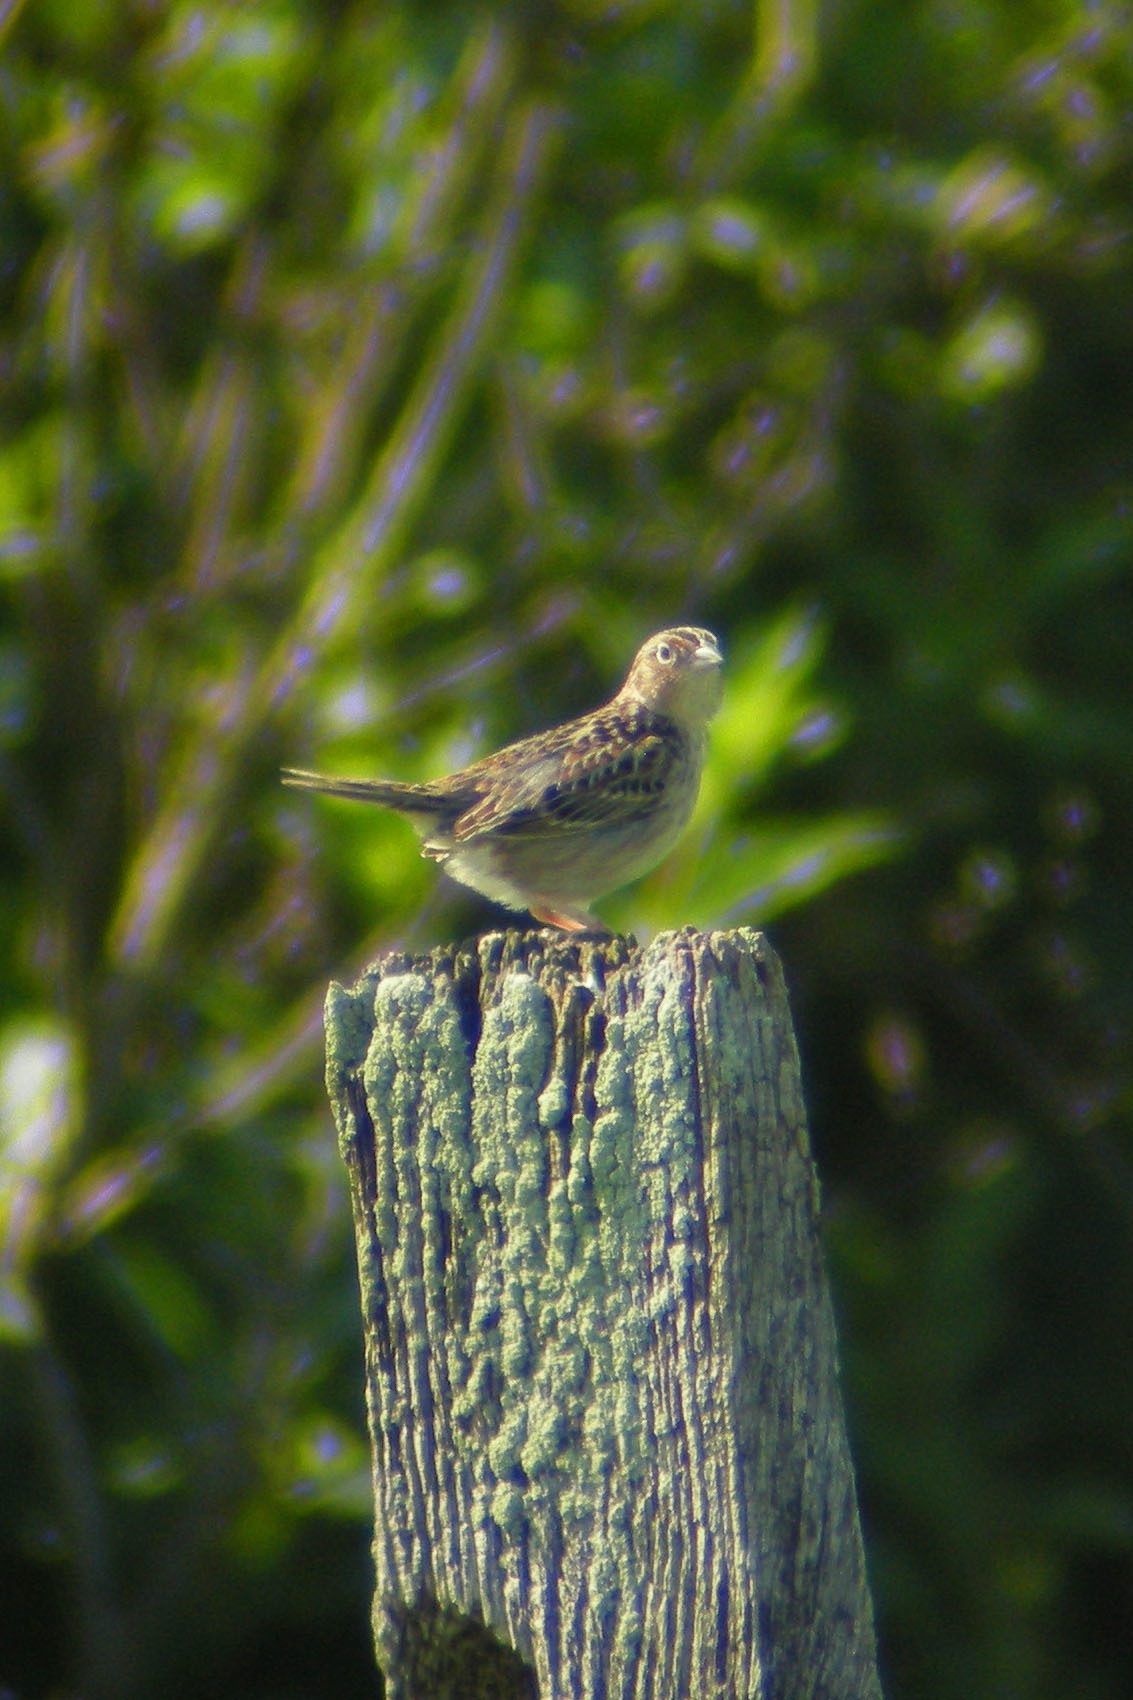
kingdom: Animalia
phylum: Chordata
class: Aves
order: Passeriformes
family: Passerellidae
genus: Ammodramus
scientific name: Ammodramus savannarum
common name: Grasshopper sparrow
